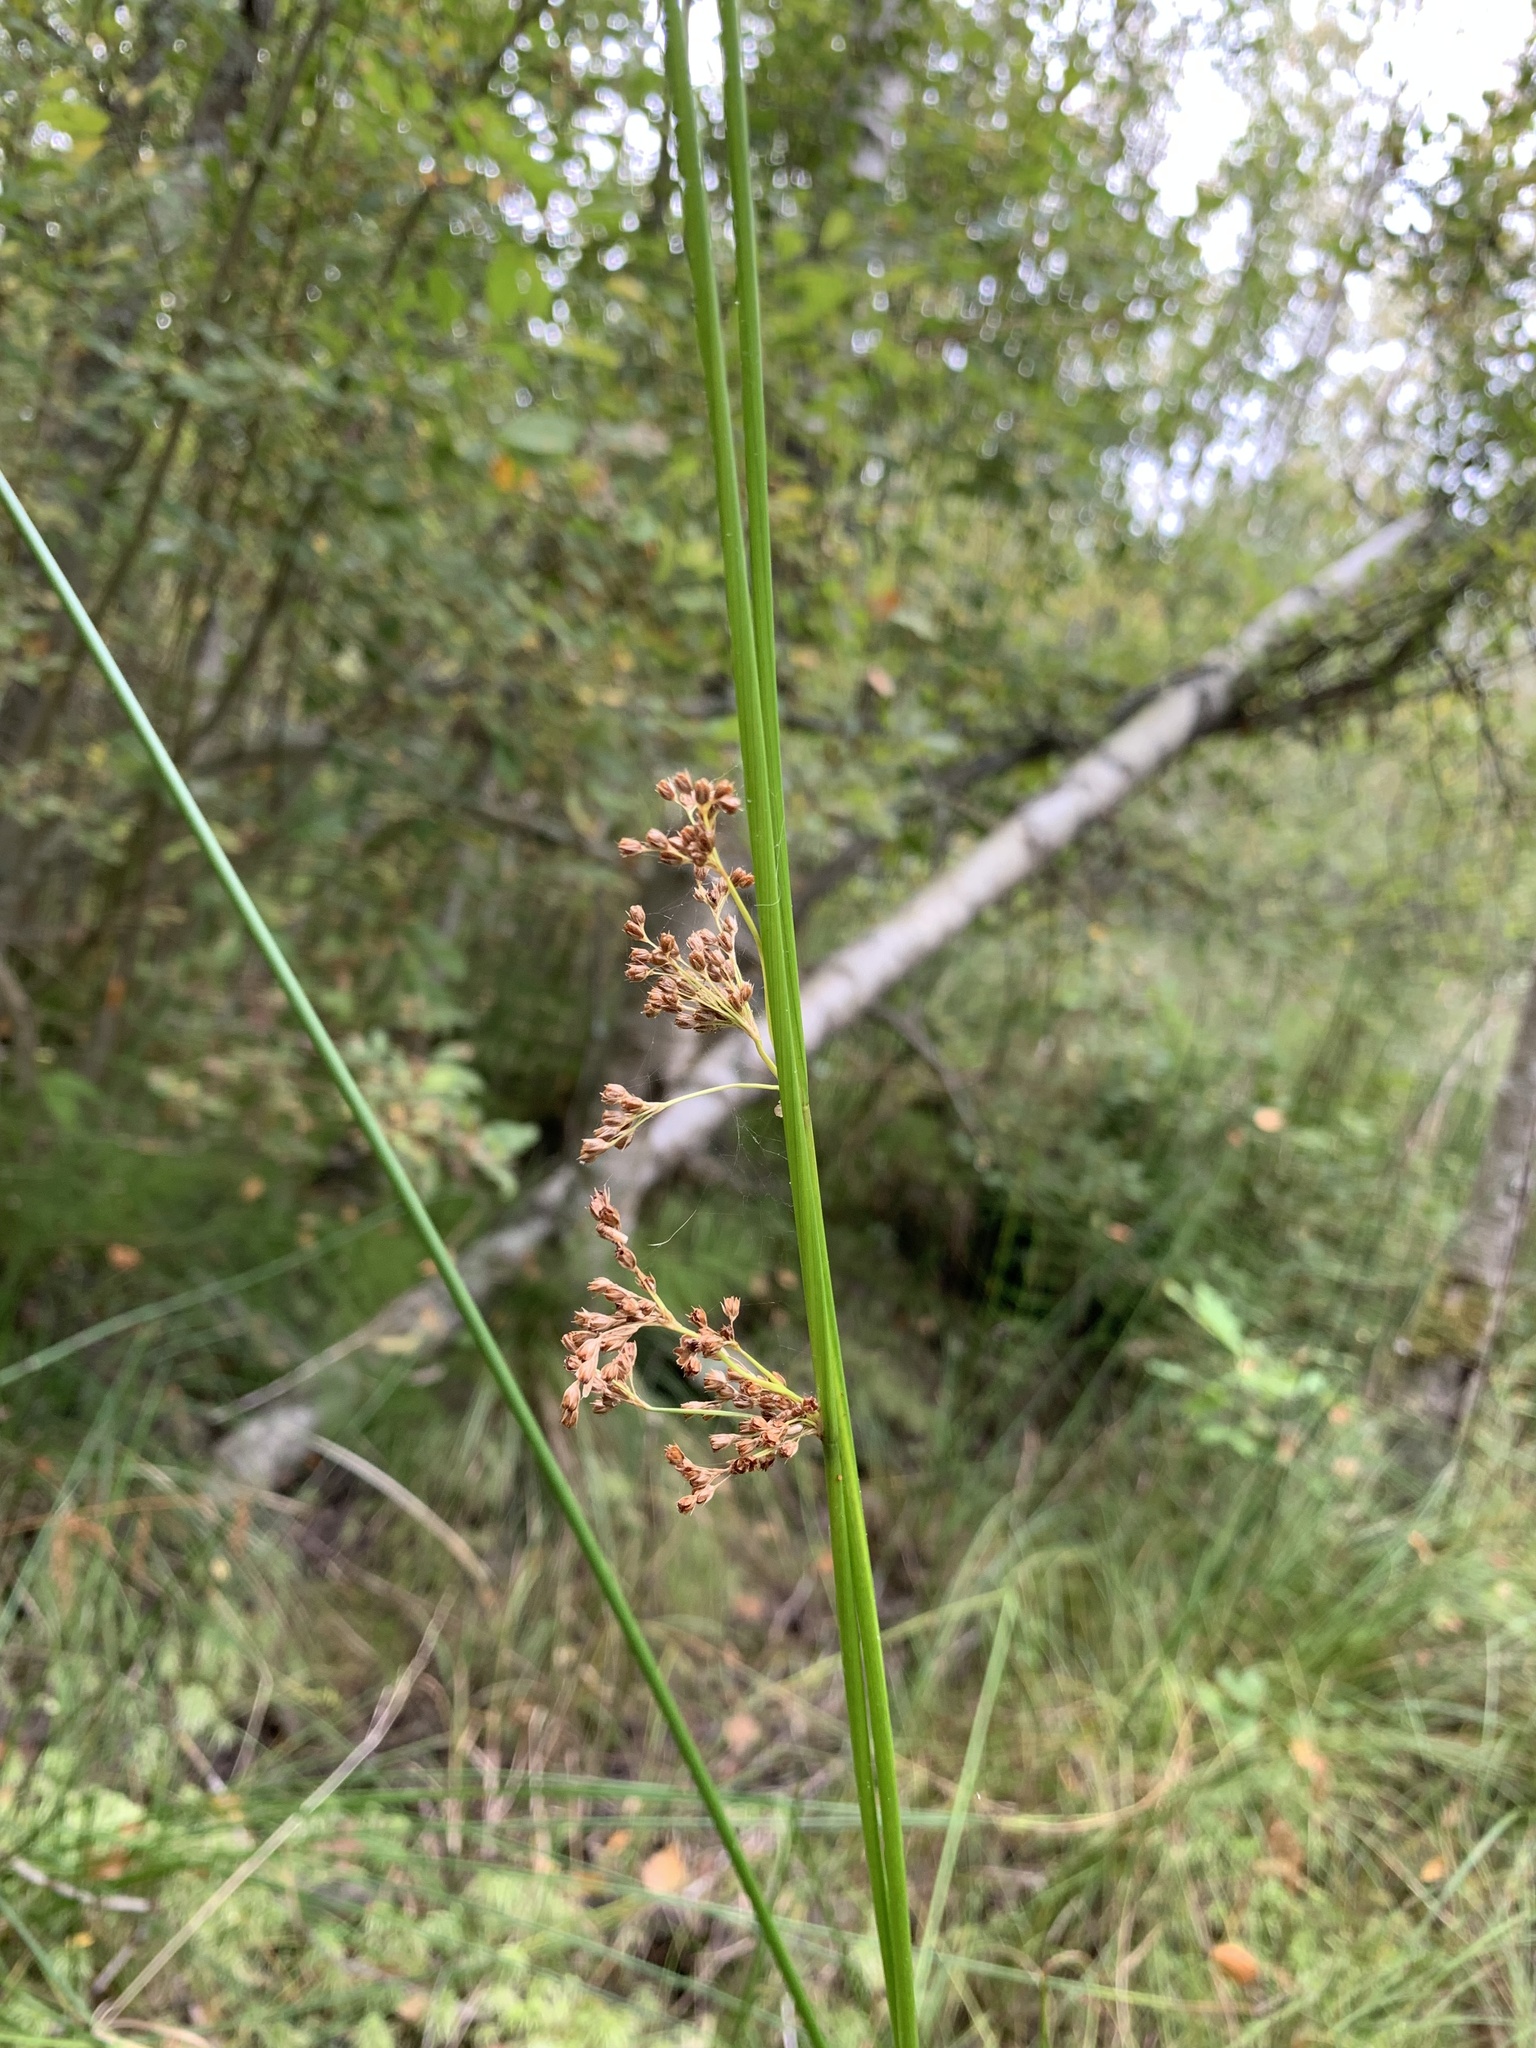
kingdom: Plantae
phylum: Tracheophyta
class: Liliopsida
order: Poales
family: Juncaceae
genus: Juncus
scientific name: Juncus effusus
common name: Soft rush
